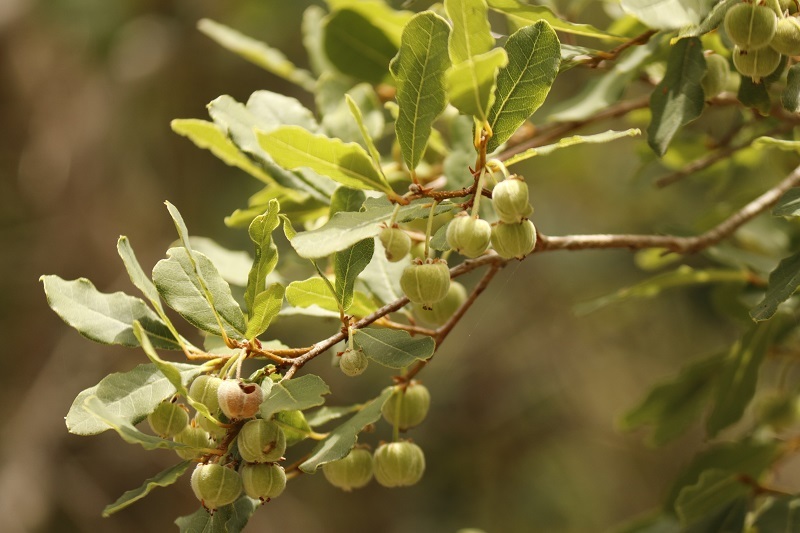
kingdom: Plantae
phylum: Tracheophyta
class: Magnoliopsida
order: Malpighiales
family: Phyllanthaceae
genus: Lachnostylis
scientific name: Lachnostylis hirta
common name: Coalwood
